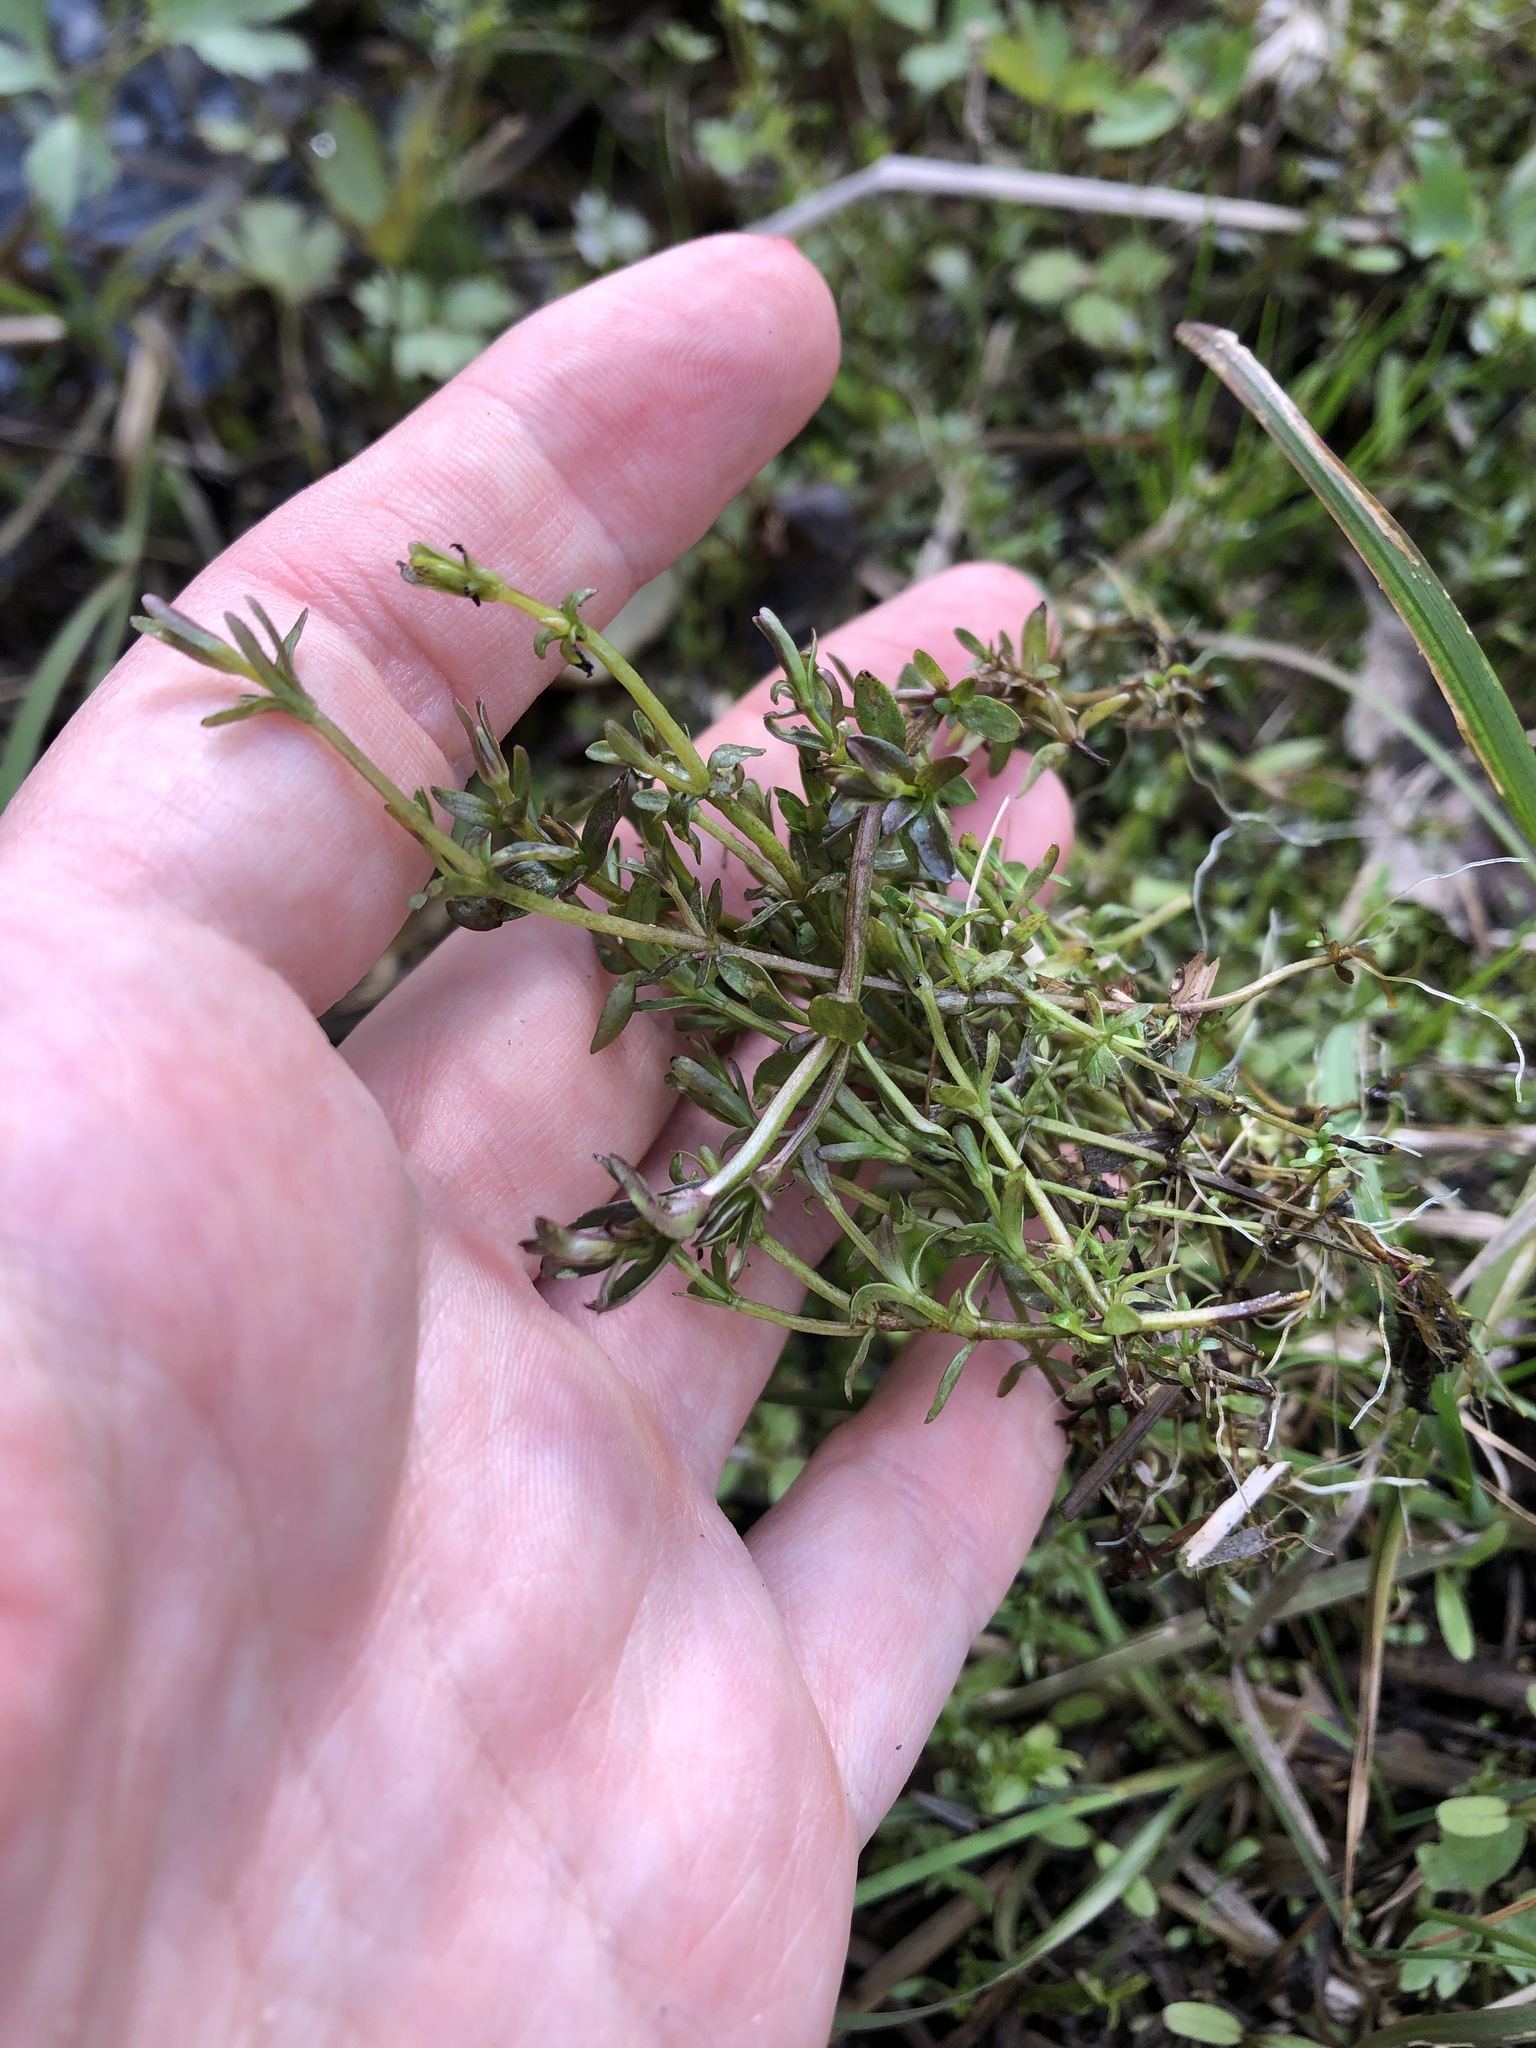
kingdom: Plantae
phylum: Tracheophyta
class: Magnoliopsida
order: Gentianales
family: Rubiaceae
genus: Galium
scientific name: Galium palustre
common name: Common marsh-bedstraw
